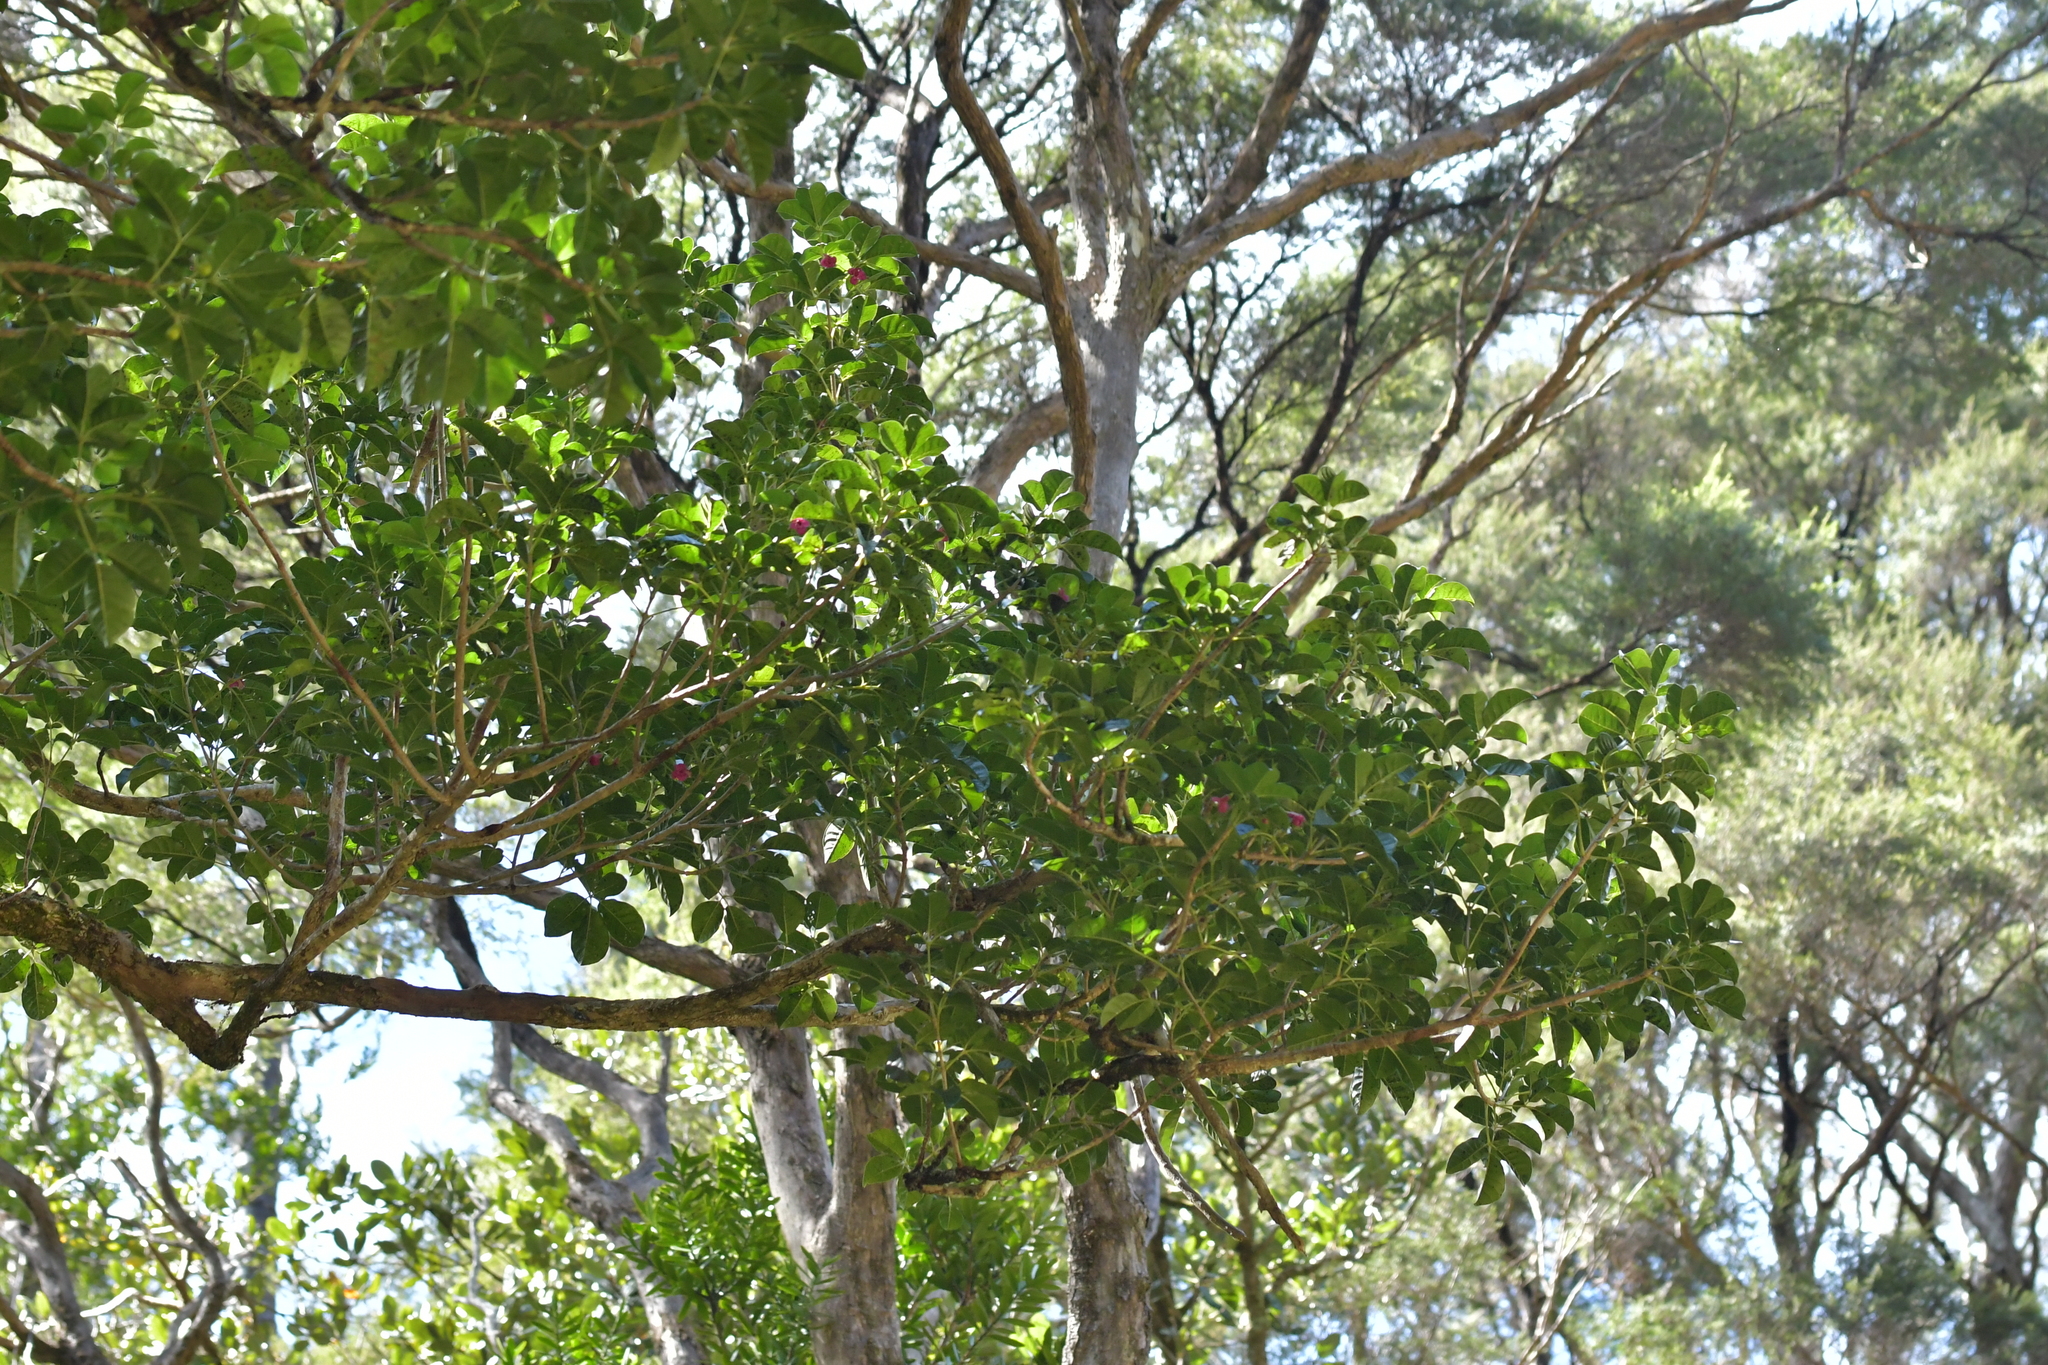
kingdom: Plantae
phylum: Tracheophyta
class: Magnoliopsida
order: Lamiales
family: Lamiaceae
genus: Vitex
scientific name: Vitex lucens
